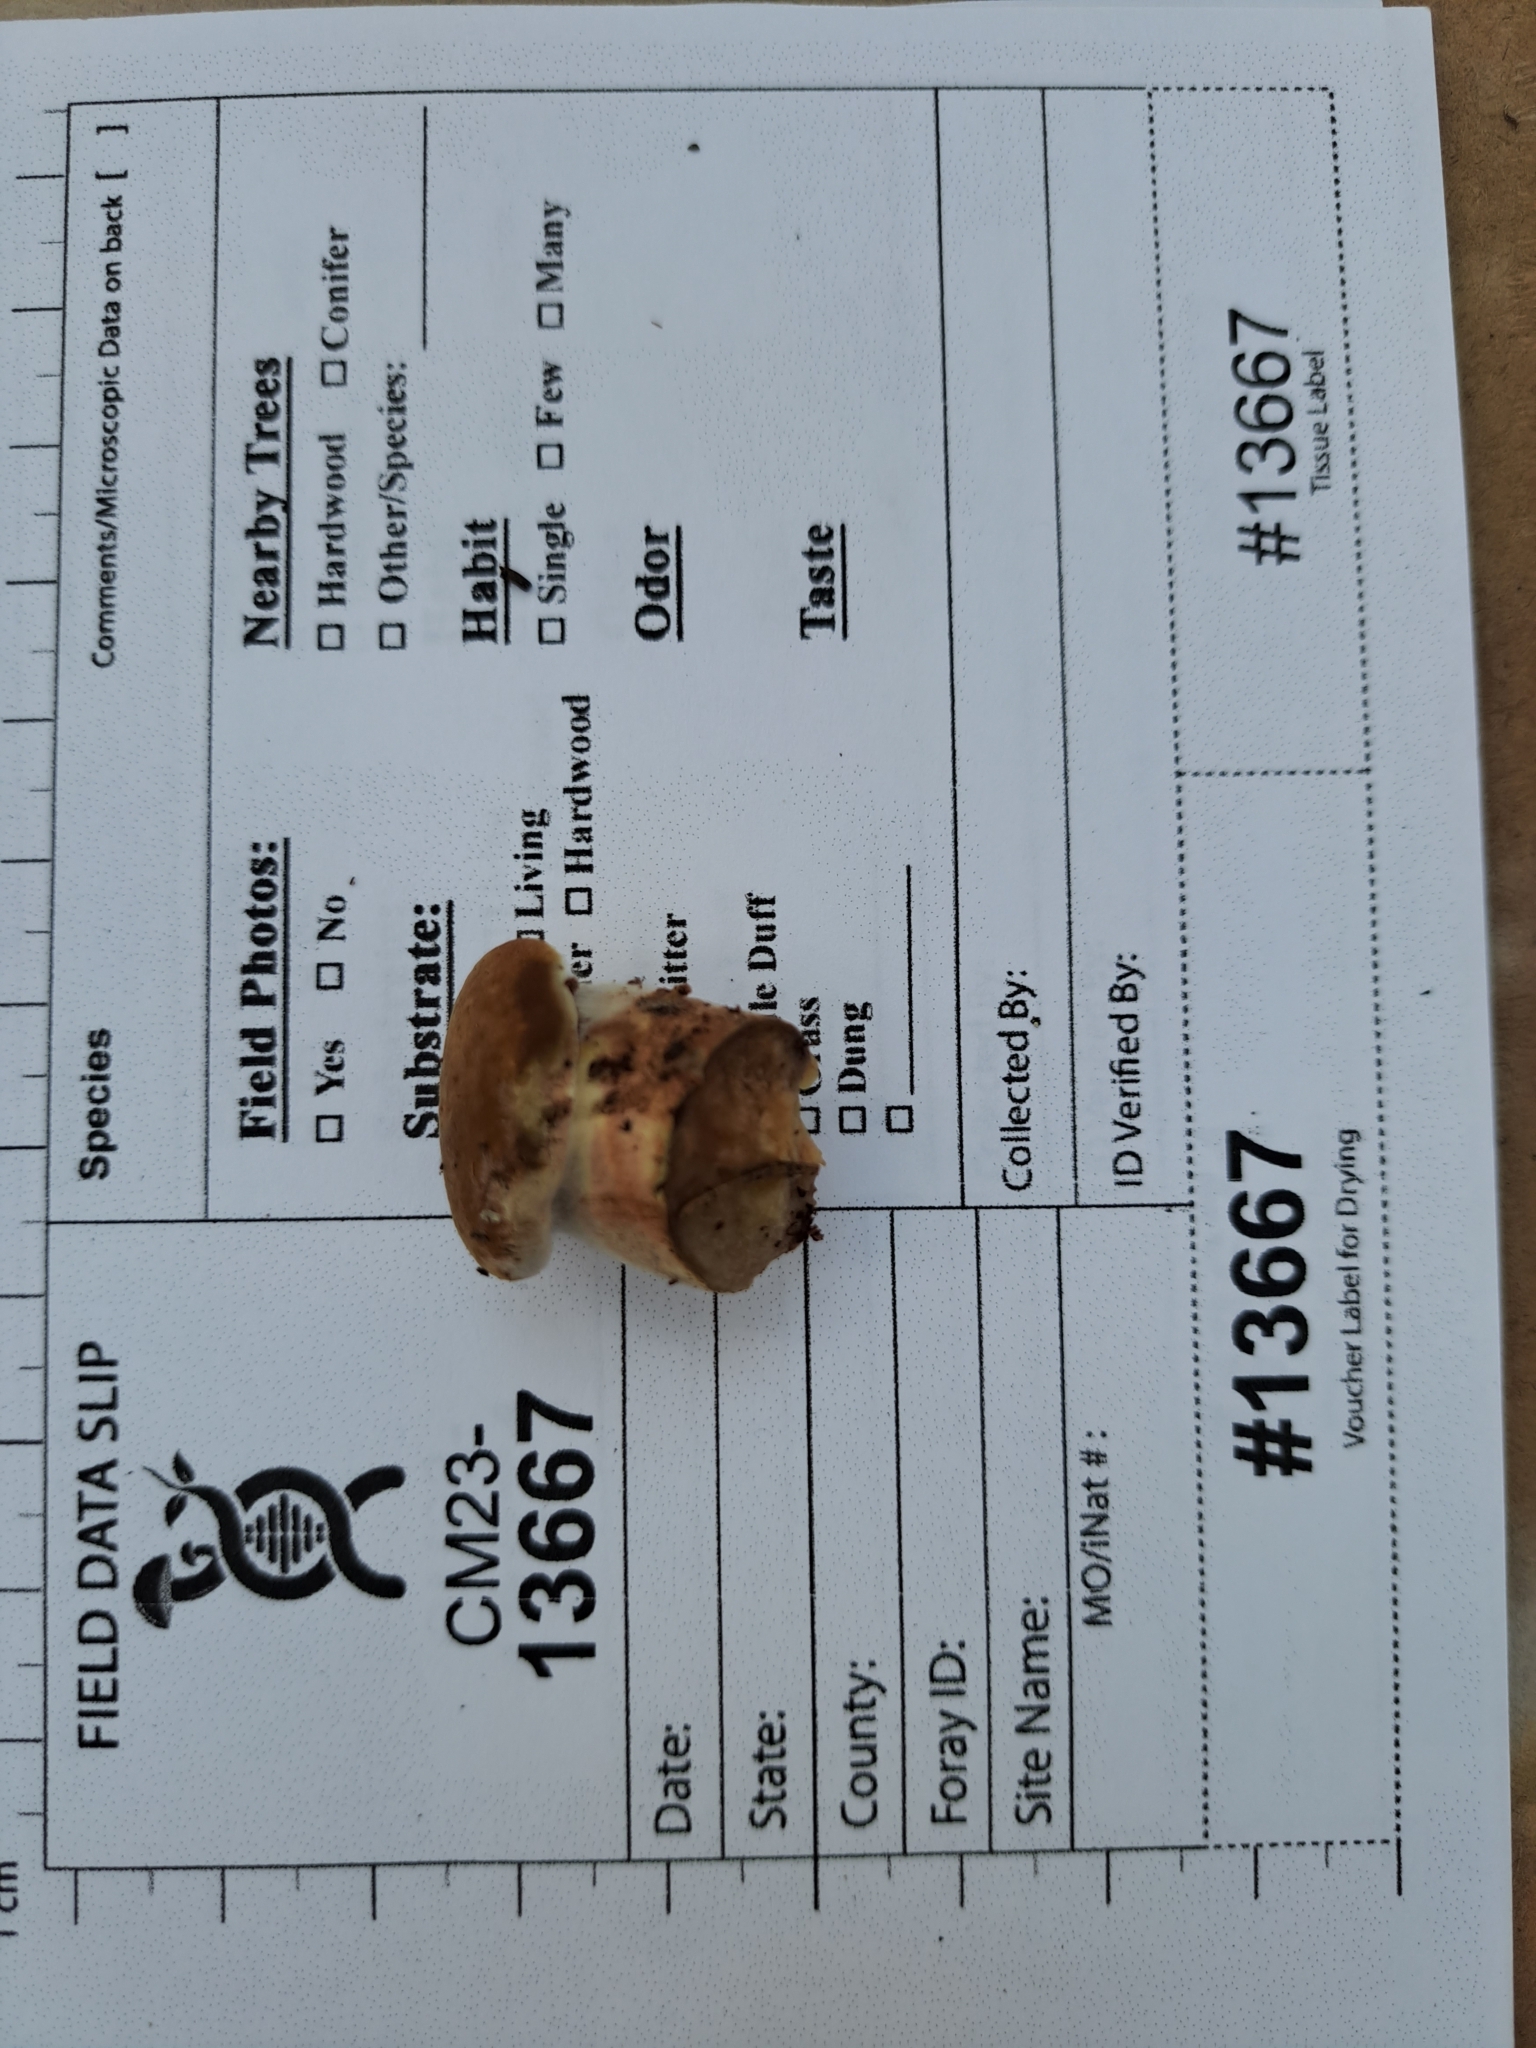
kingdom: Fungi
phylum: Basidiomycota
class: Agaricomycetes
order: Boletales
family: Tapinellaceae
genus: Tapinella
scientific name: Tapinella atrotomentosa
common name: Velvet rollrim
